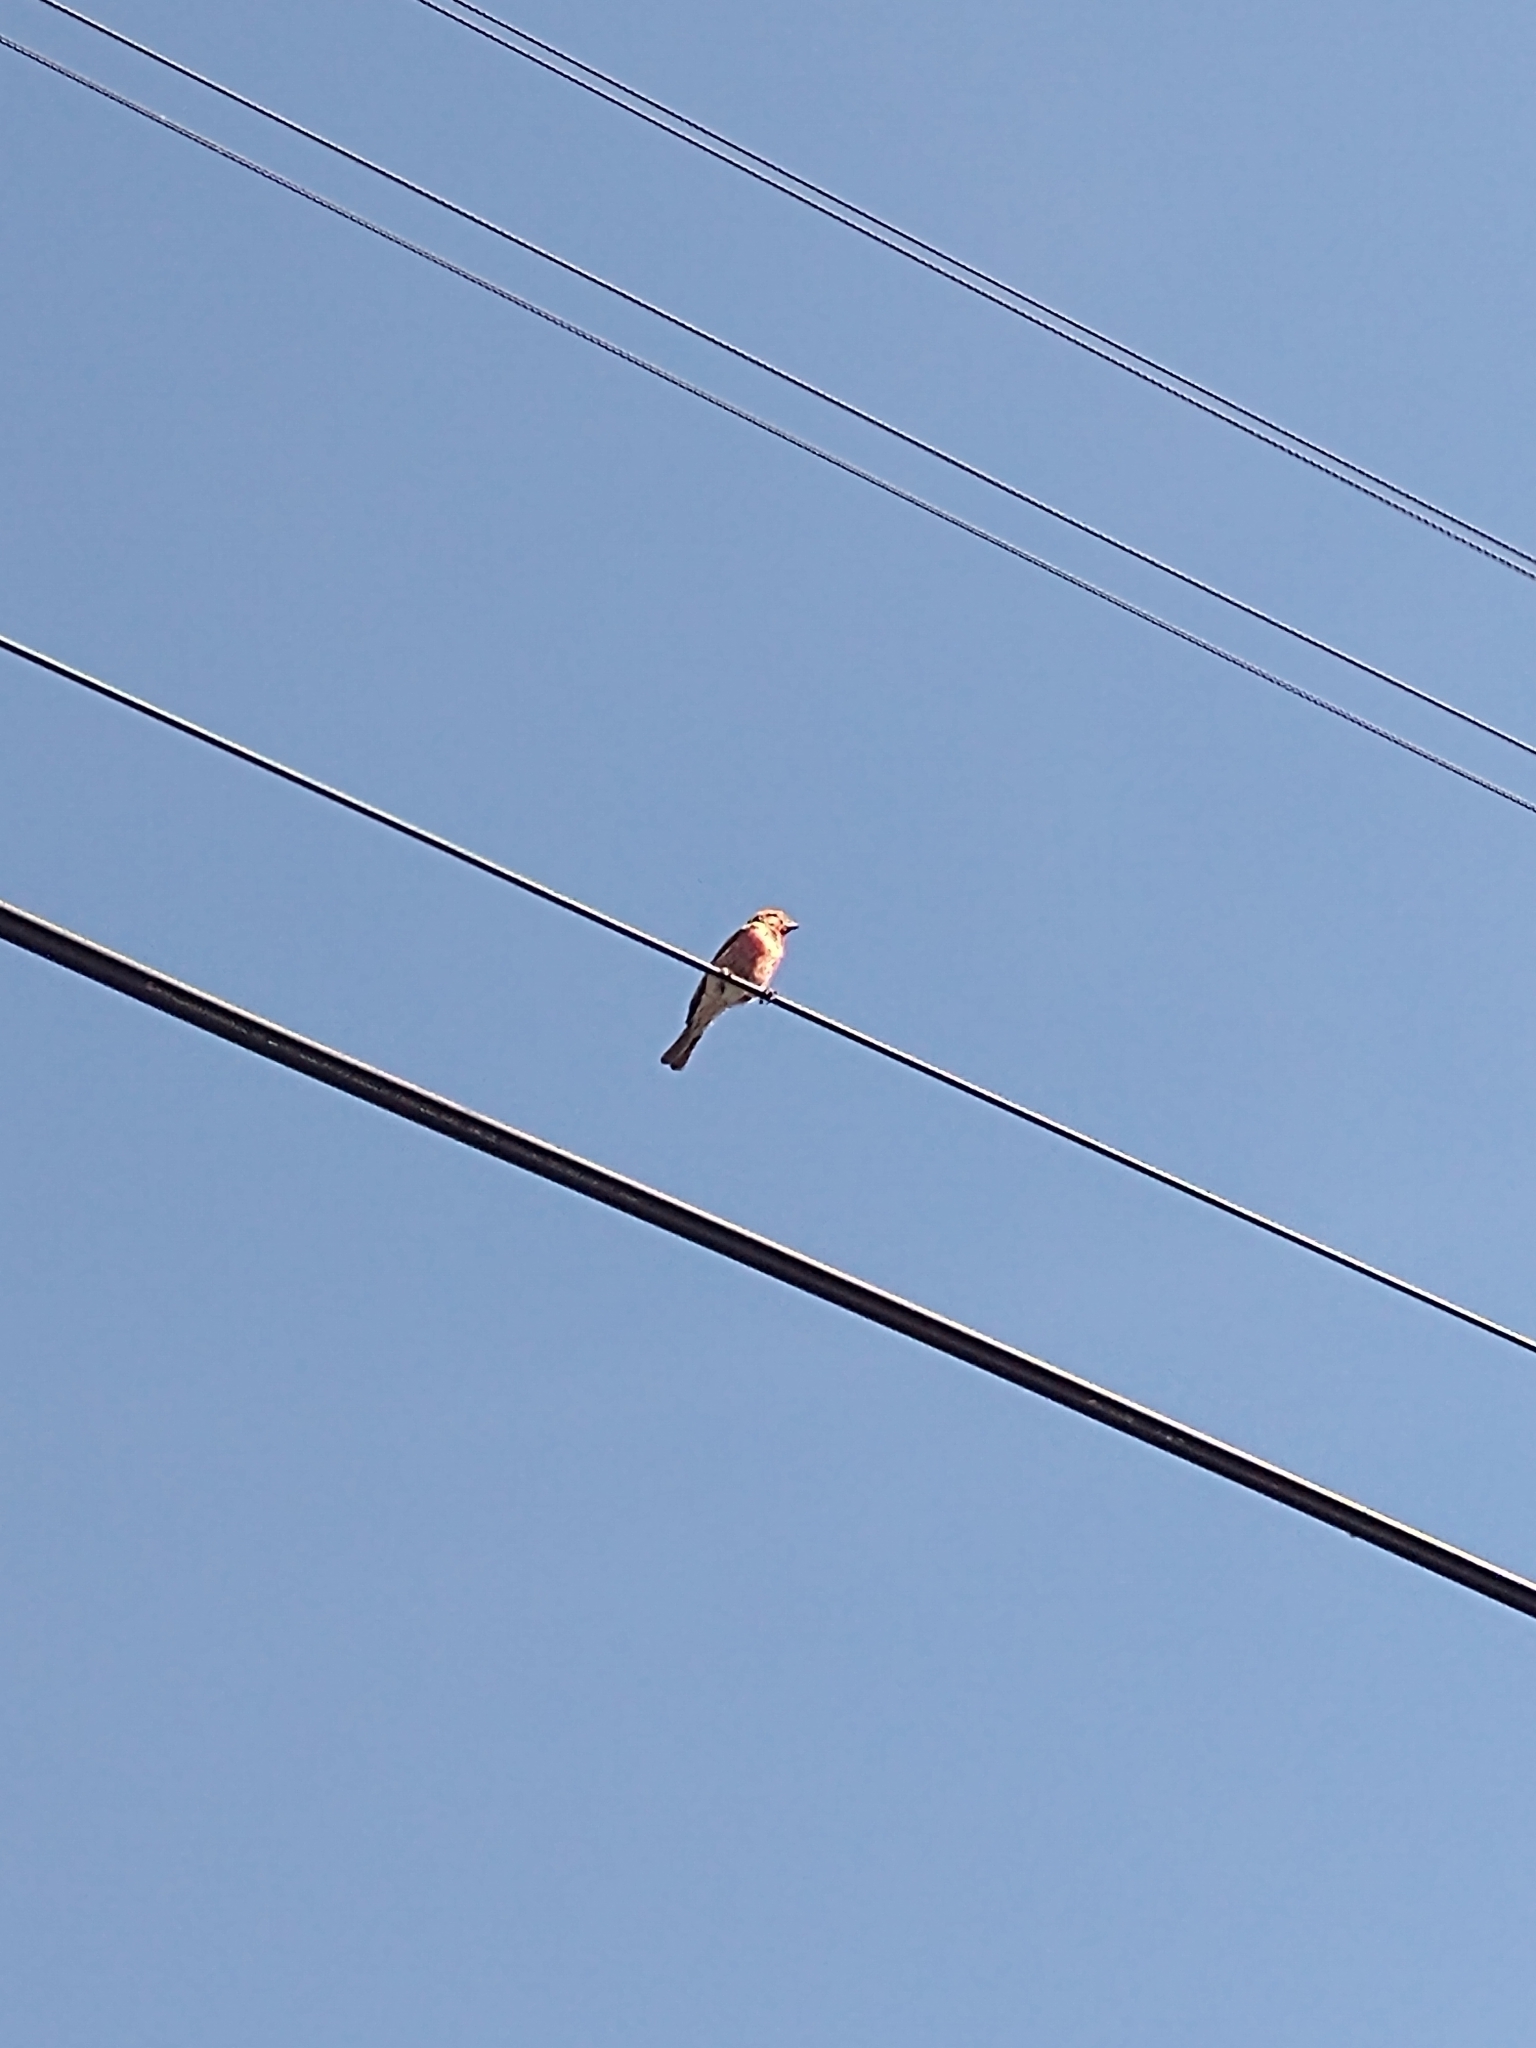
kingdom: Animalia
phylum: Chordata
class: Aves
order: Passeriformes
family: Fringillidae
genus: Haemorhous
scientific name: Haemorhous mexicanus
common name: House finch
